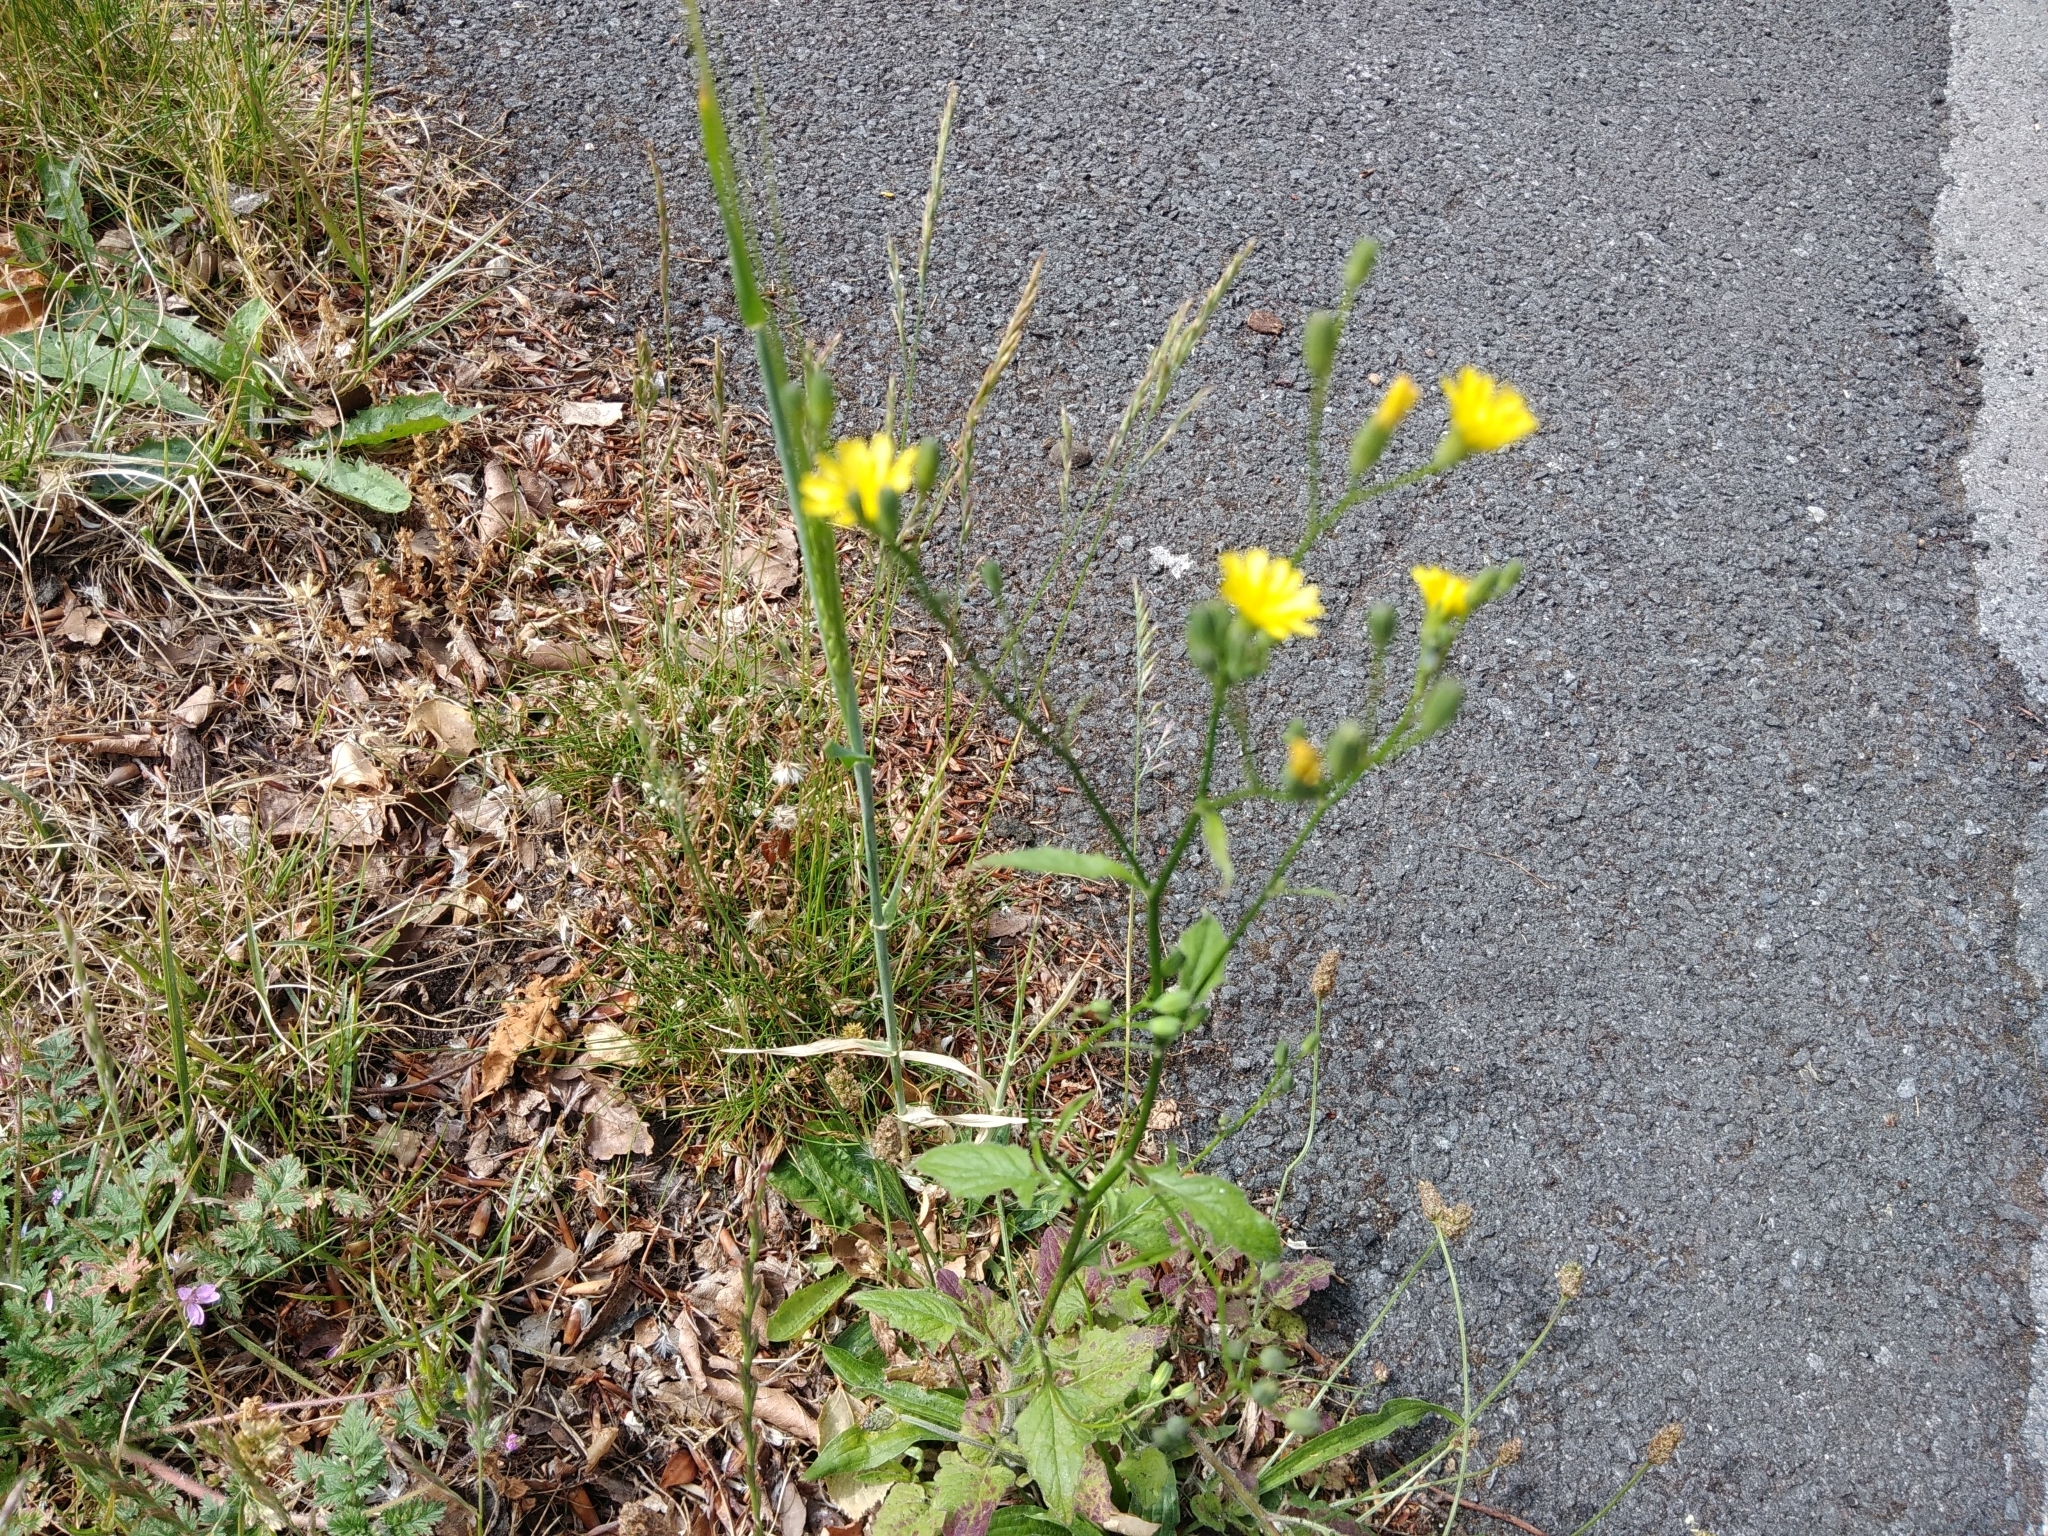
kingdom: Plantae
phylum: Tracheophyta
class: Magnoliopsida
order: Asterales
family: Asteraceae
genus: Lapsana
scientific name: Lapsana communis
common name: Nipplewort
